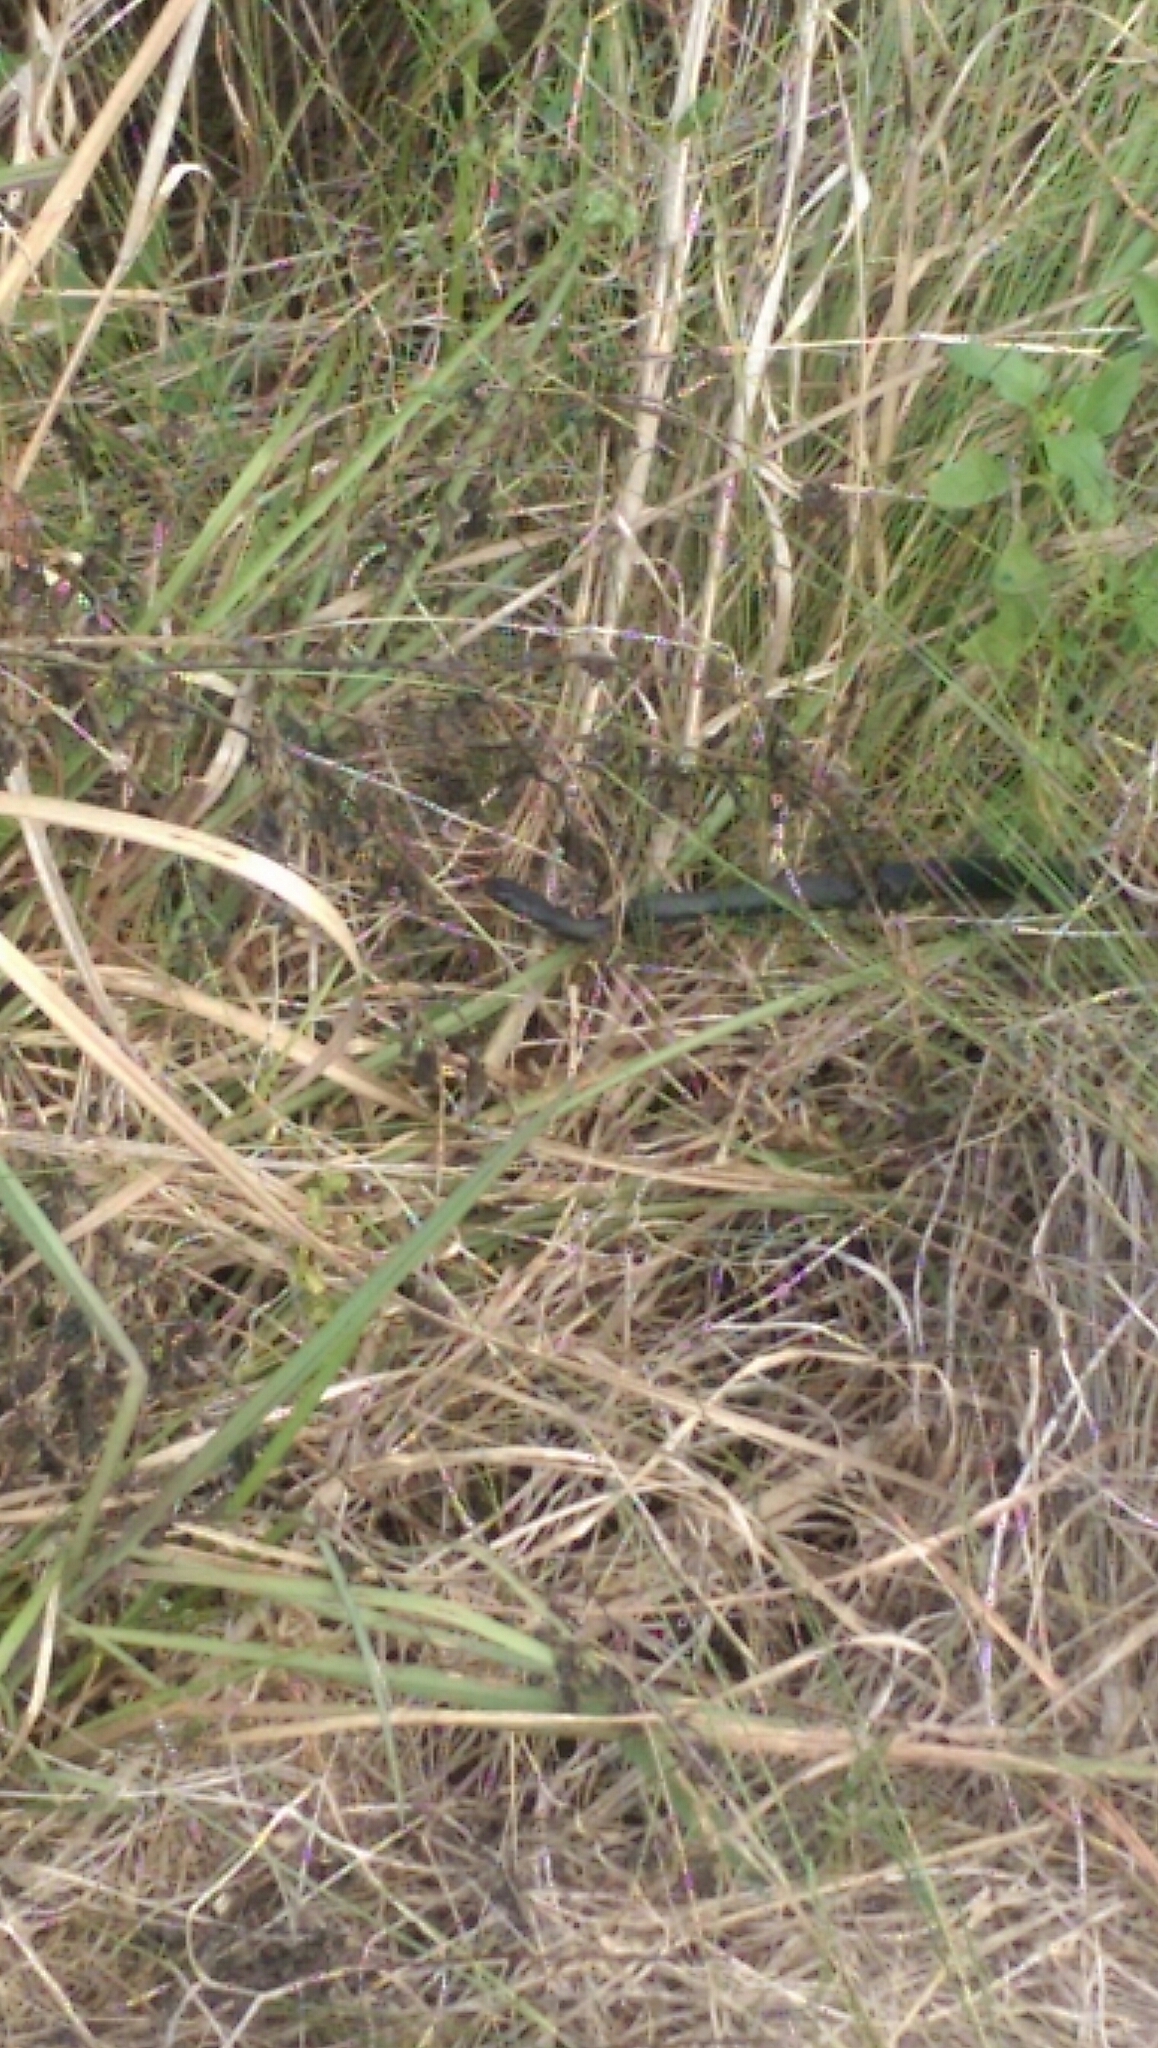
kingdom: Animalia
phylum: Chordata
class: Squamata
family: Colubridae
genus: Coluber
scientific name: Coluber constrictor
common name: Eastern racer
